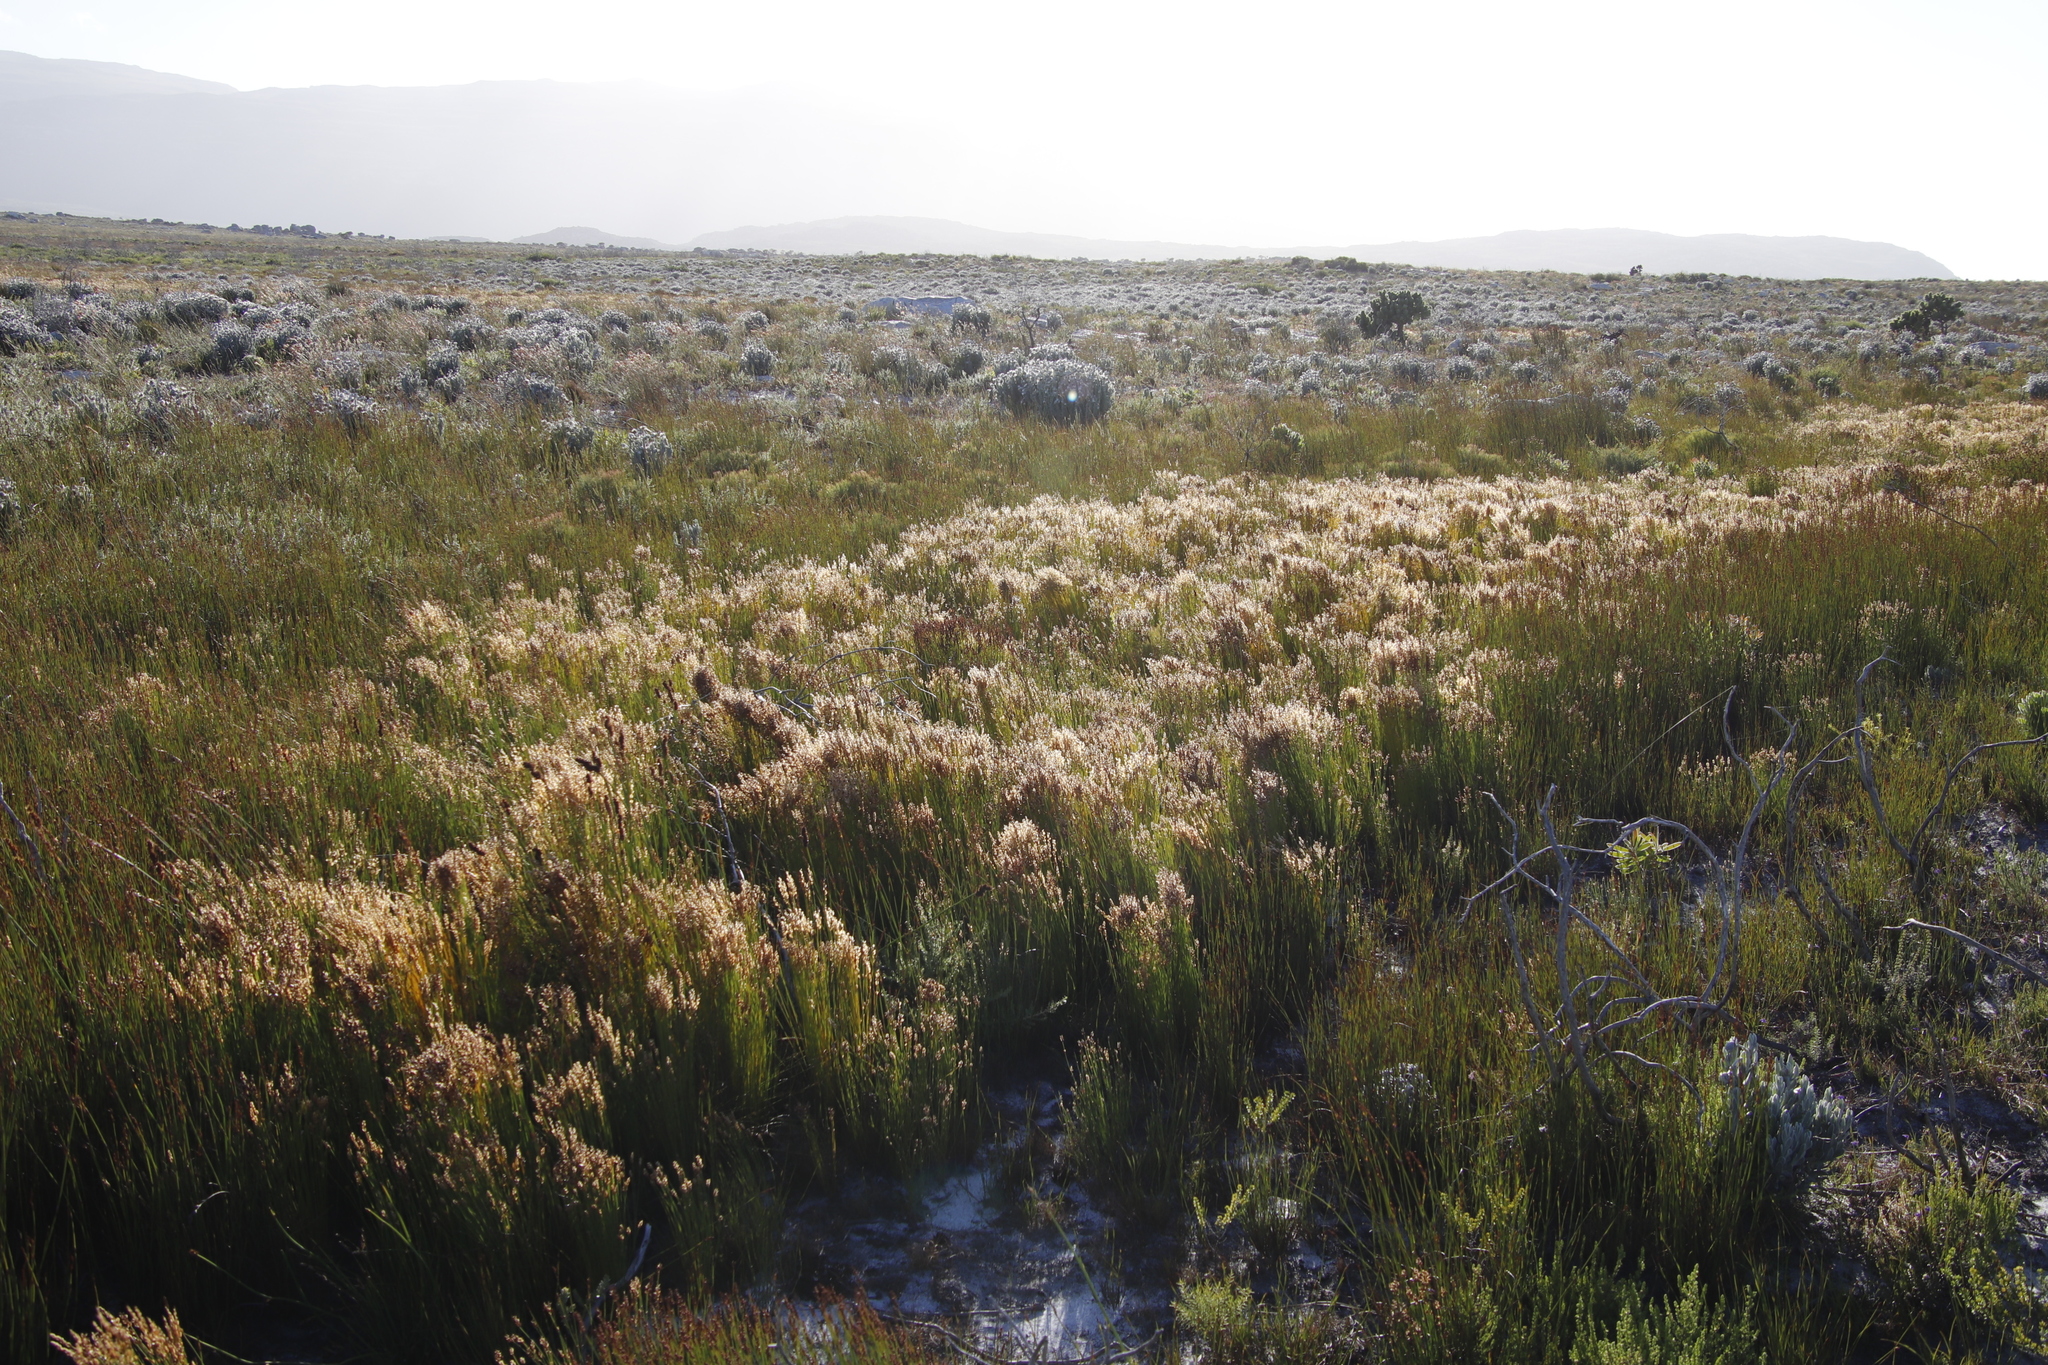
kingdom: Plantae
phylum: Tracheophyta
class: Liliopsida
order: Poales
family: Restionaceae
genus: Elegia
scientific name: Elegia filacea
